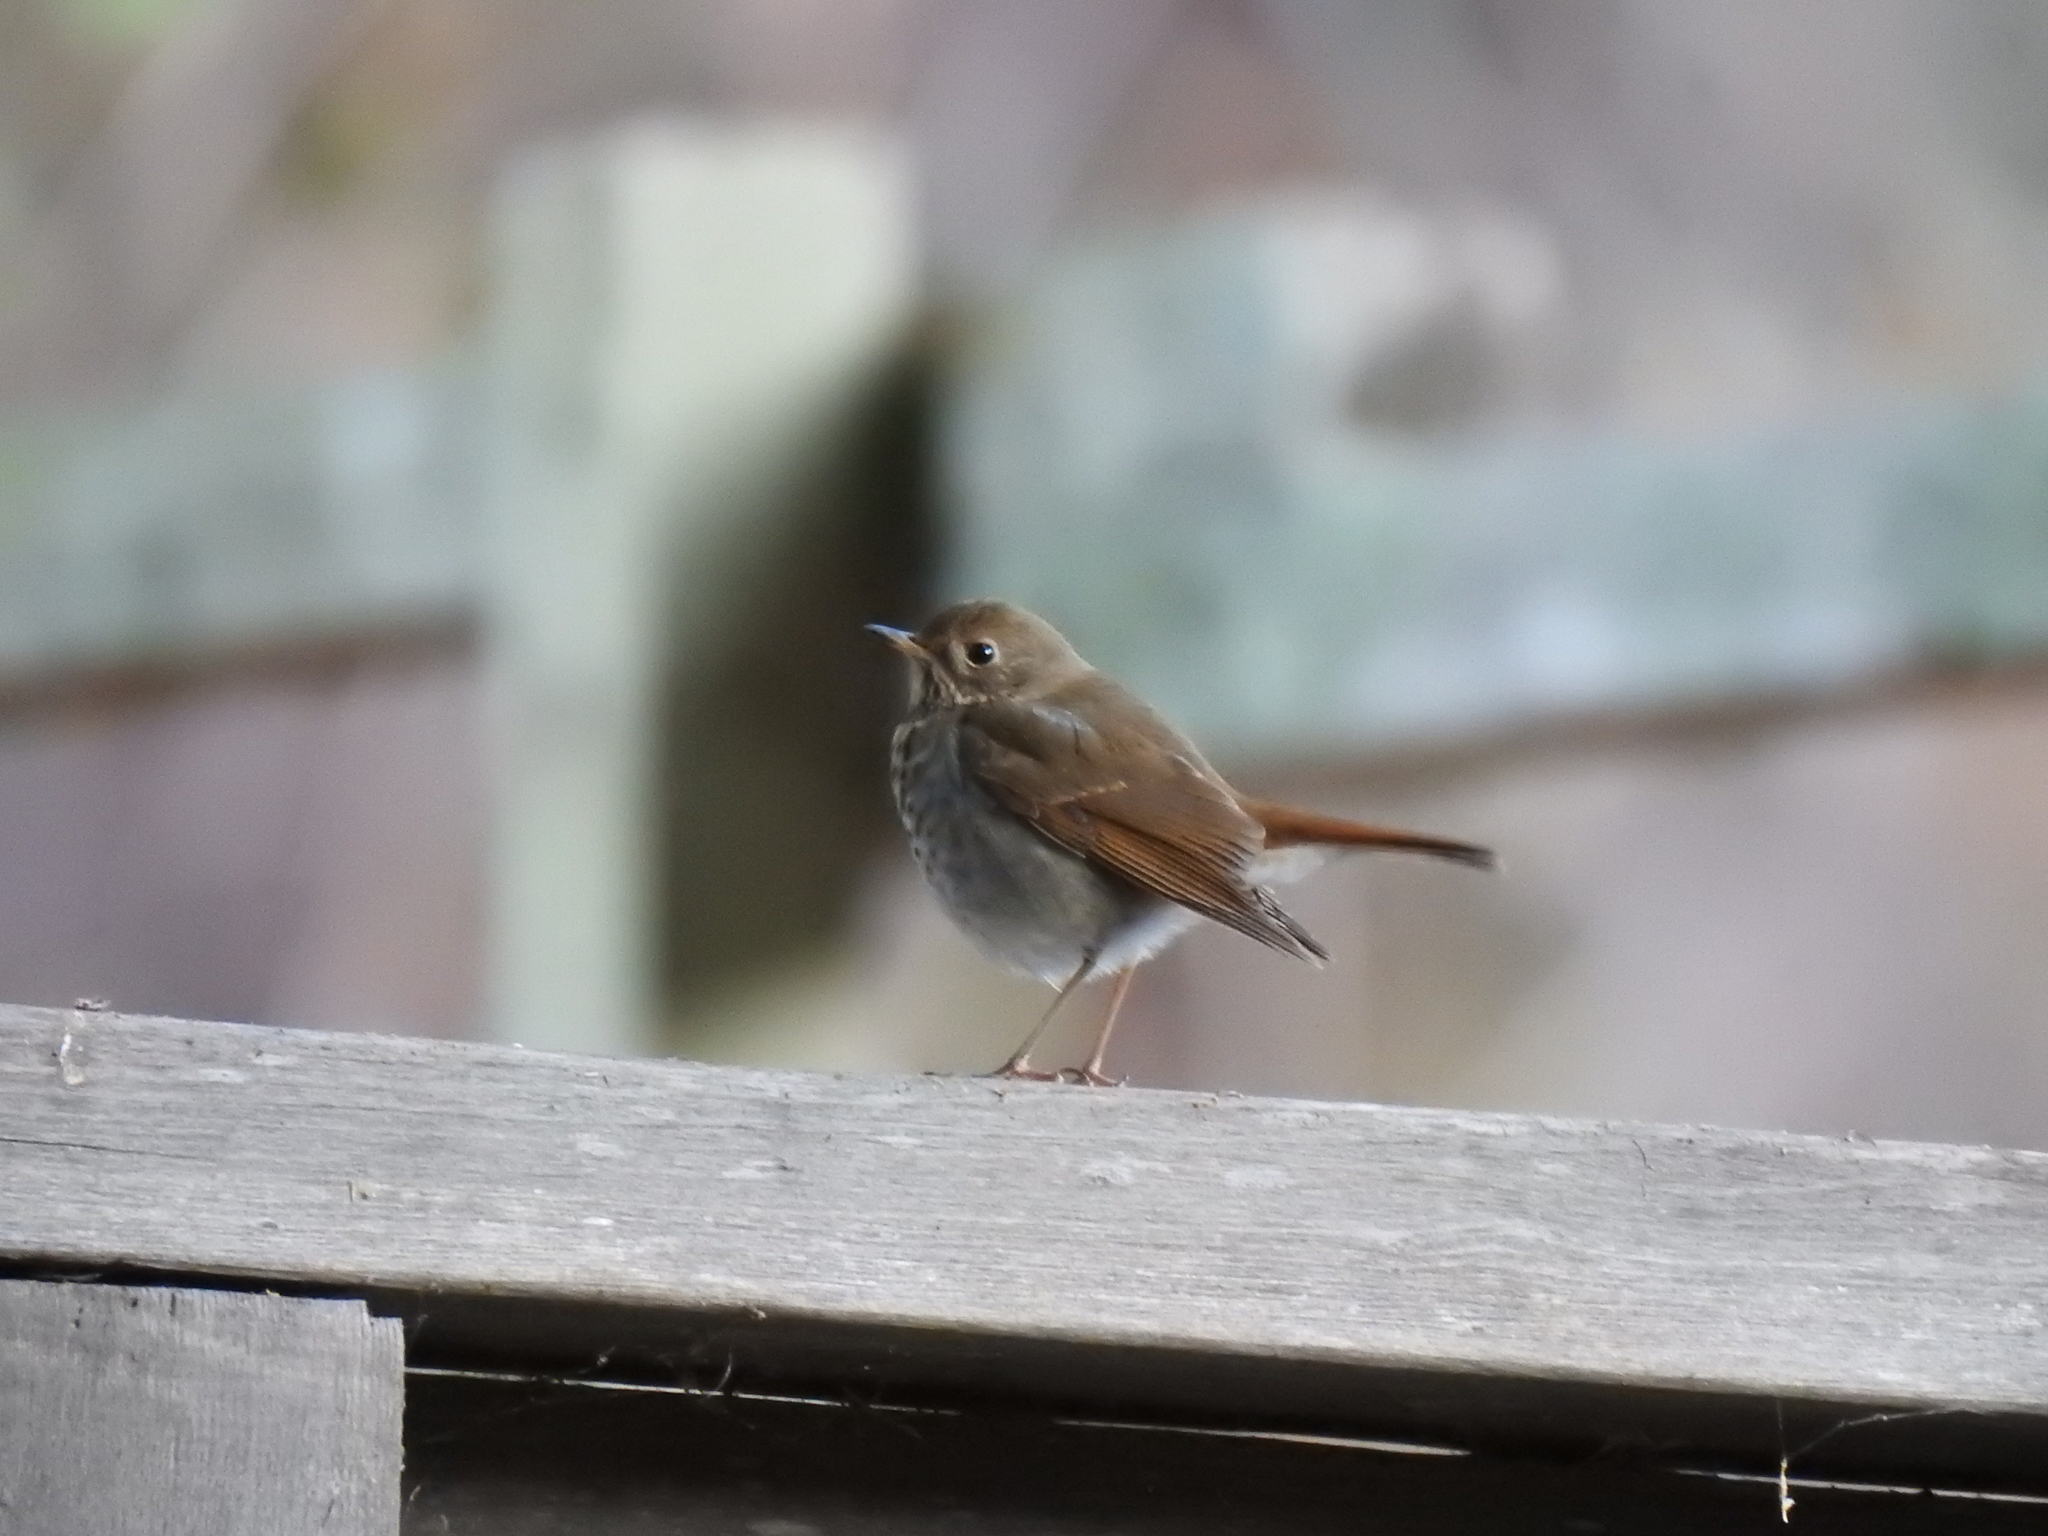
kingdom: Animalia
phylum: Chordata
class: Aves
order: Passeriformes
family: Turdidae
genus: Catharus
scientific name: Catharus guttatus
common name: Hermit thrush
